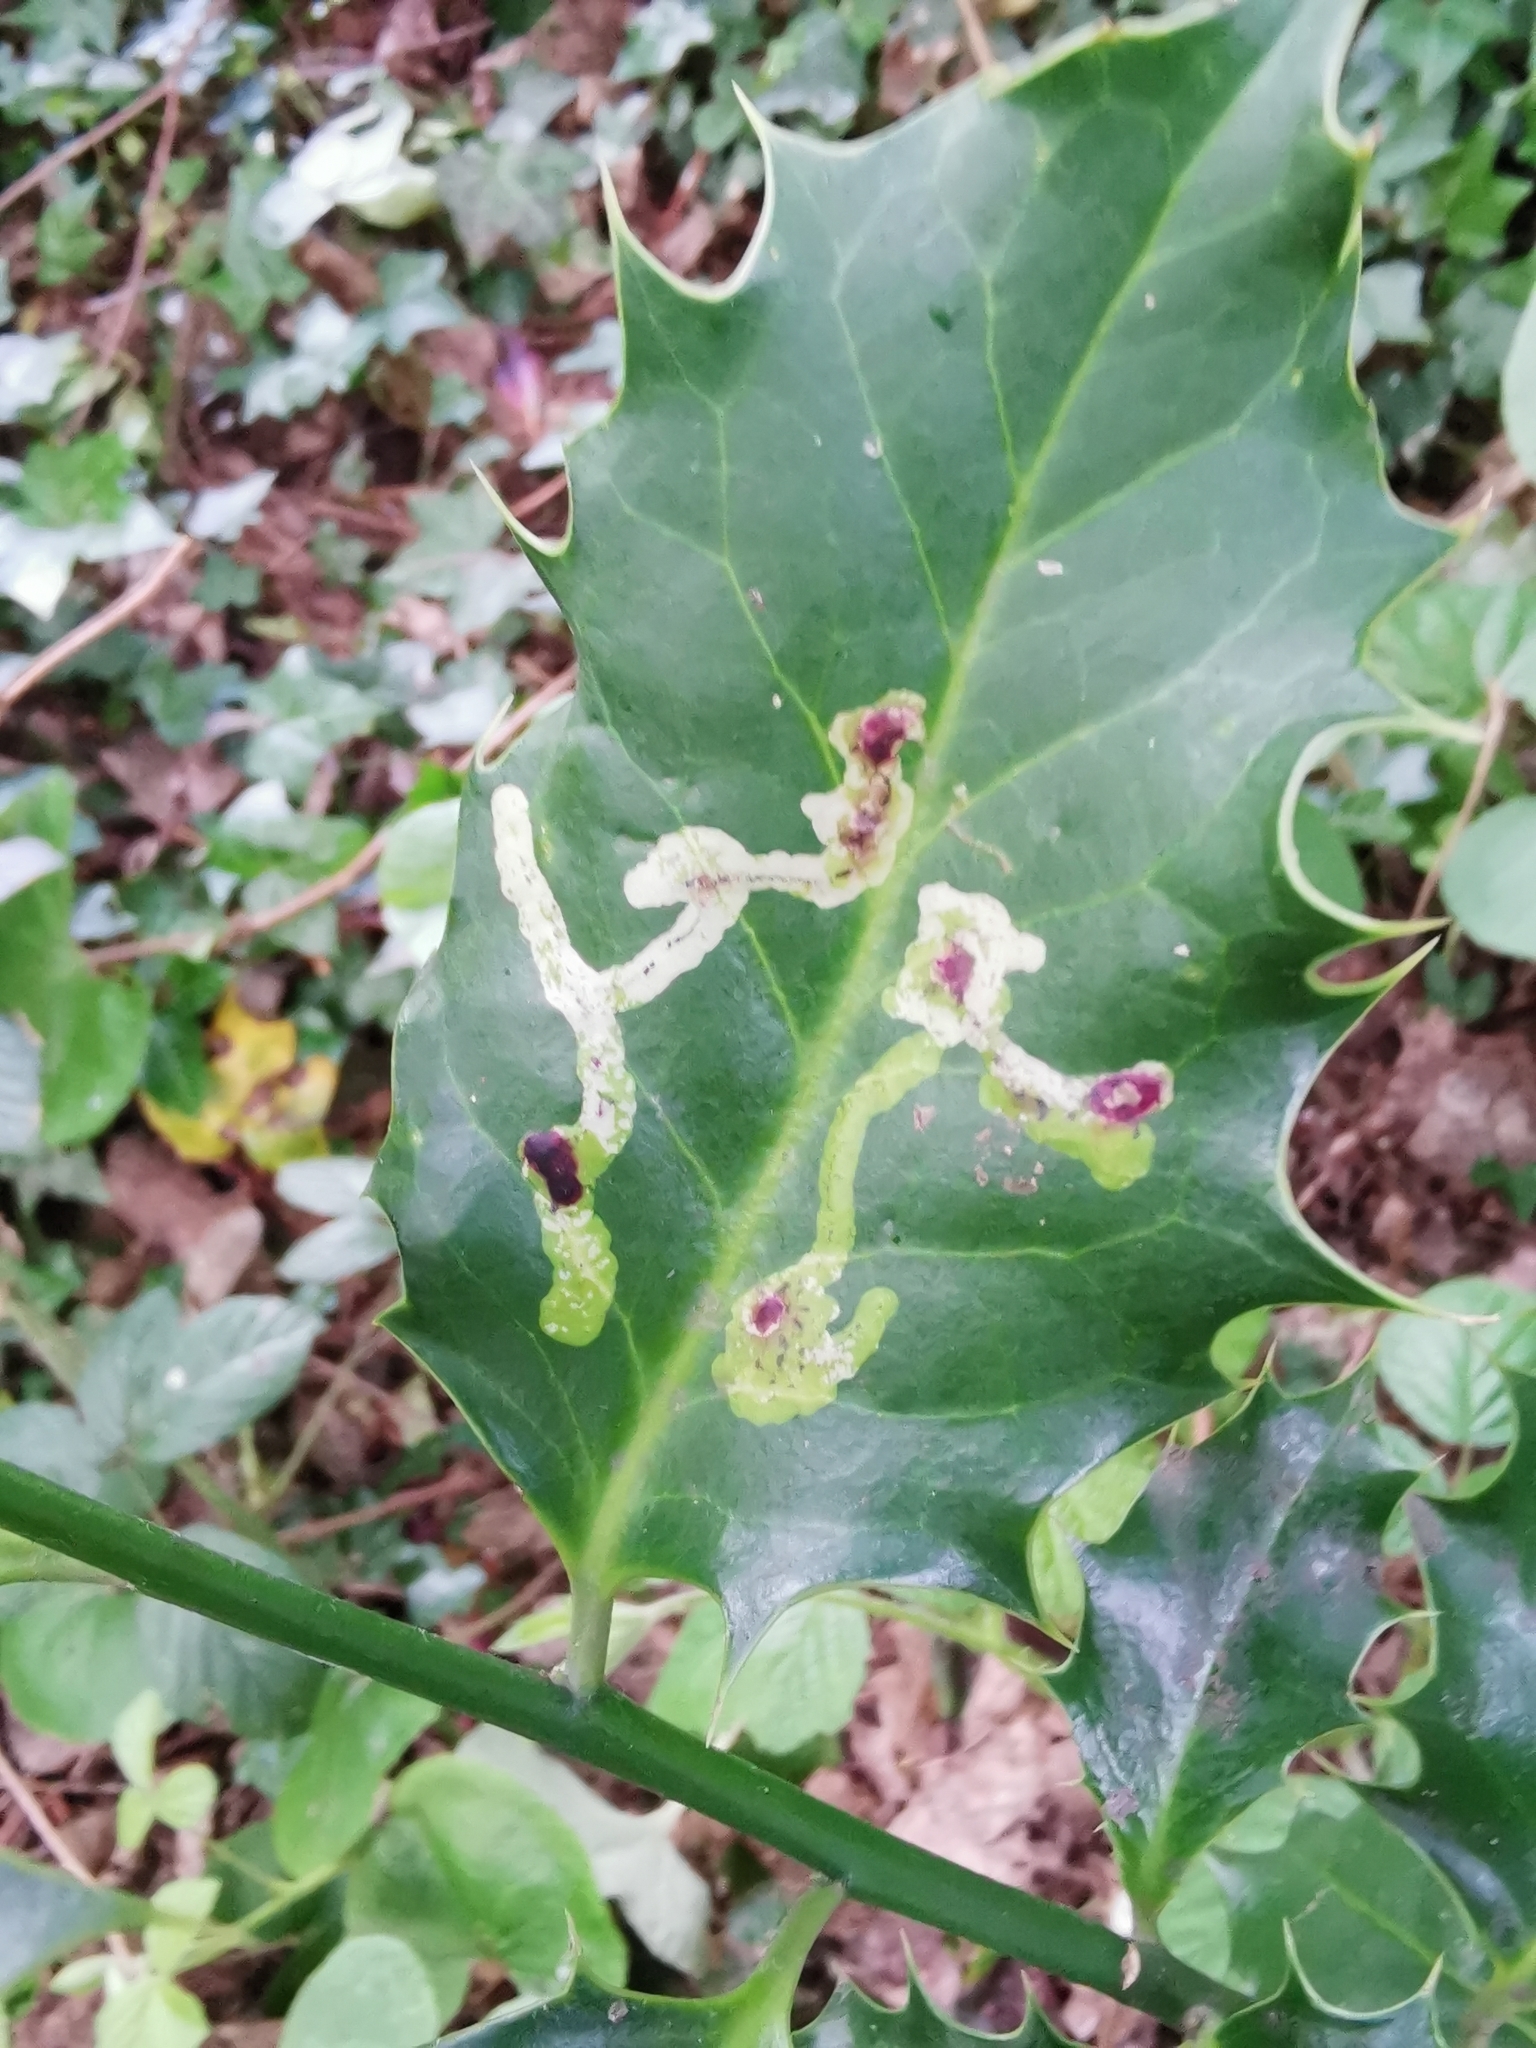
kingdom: Animalia
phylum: Arthropoda
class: Insecta
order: Diptera
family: Agromyzidae
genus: Phytomyza
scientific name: Phytomyza ilicis
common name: Holly leafminer
